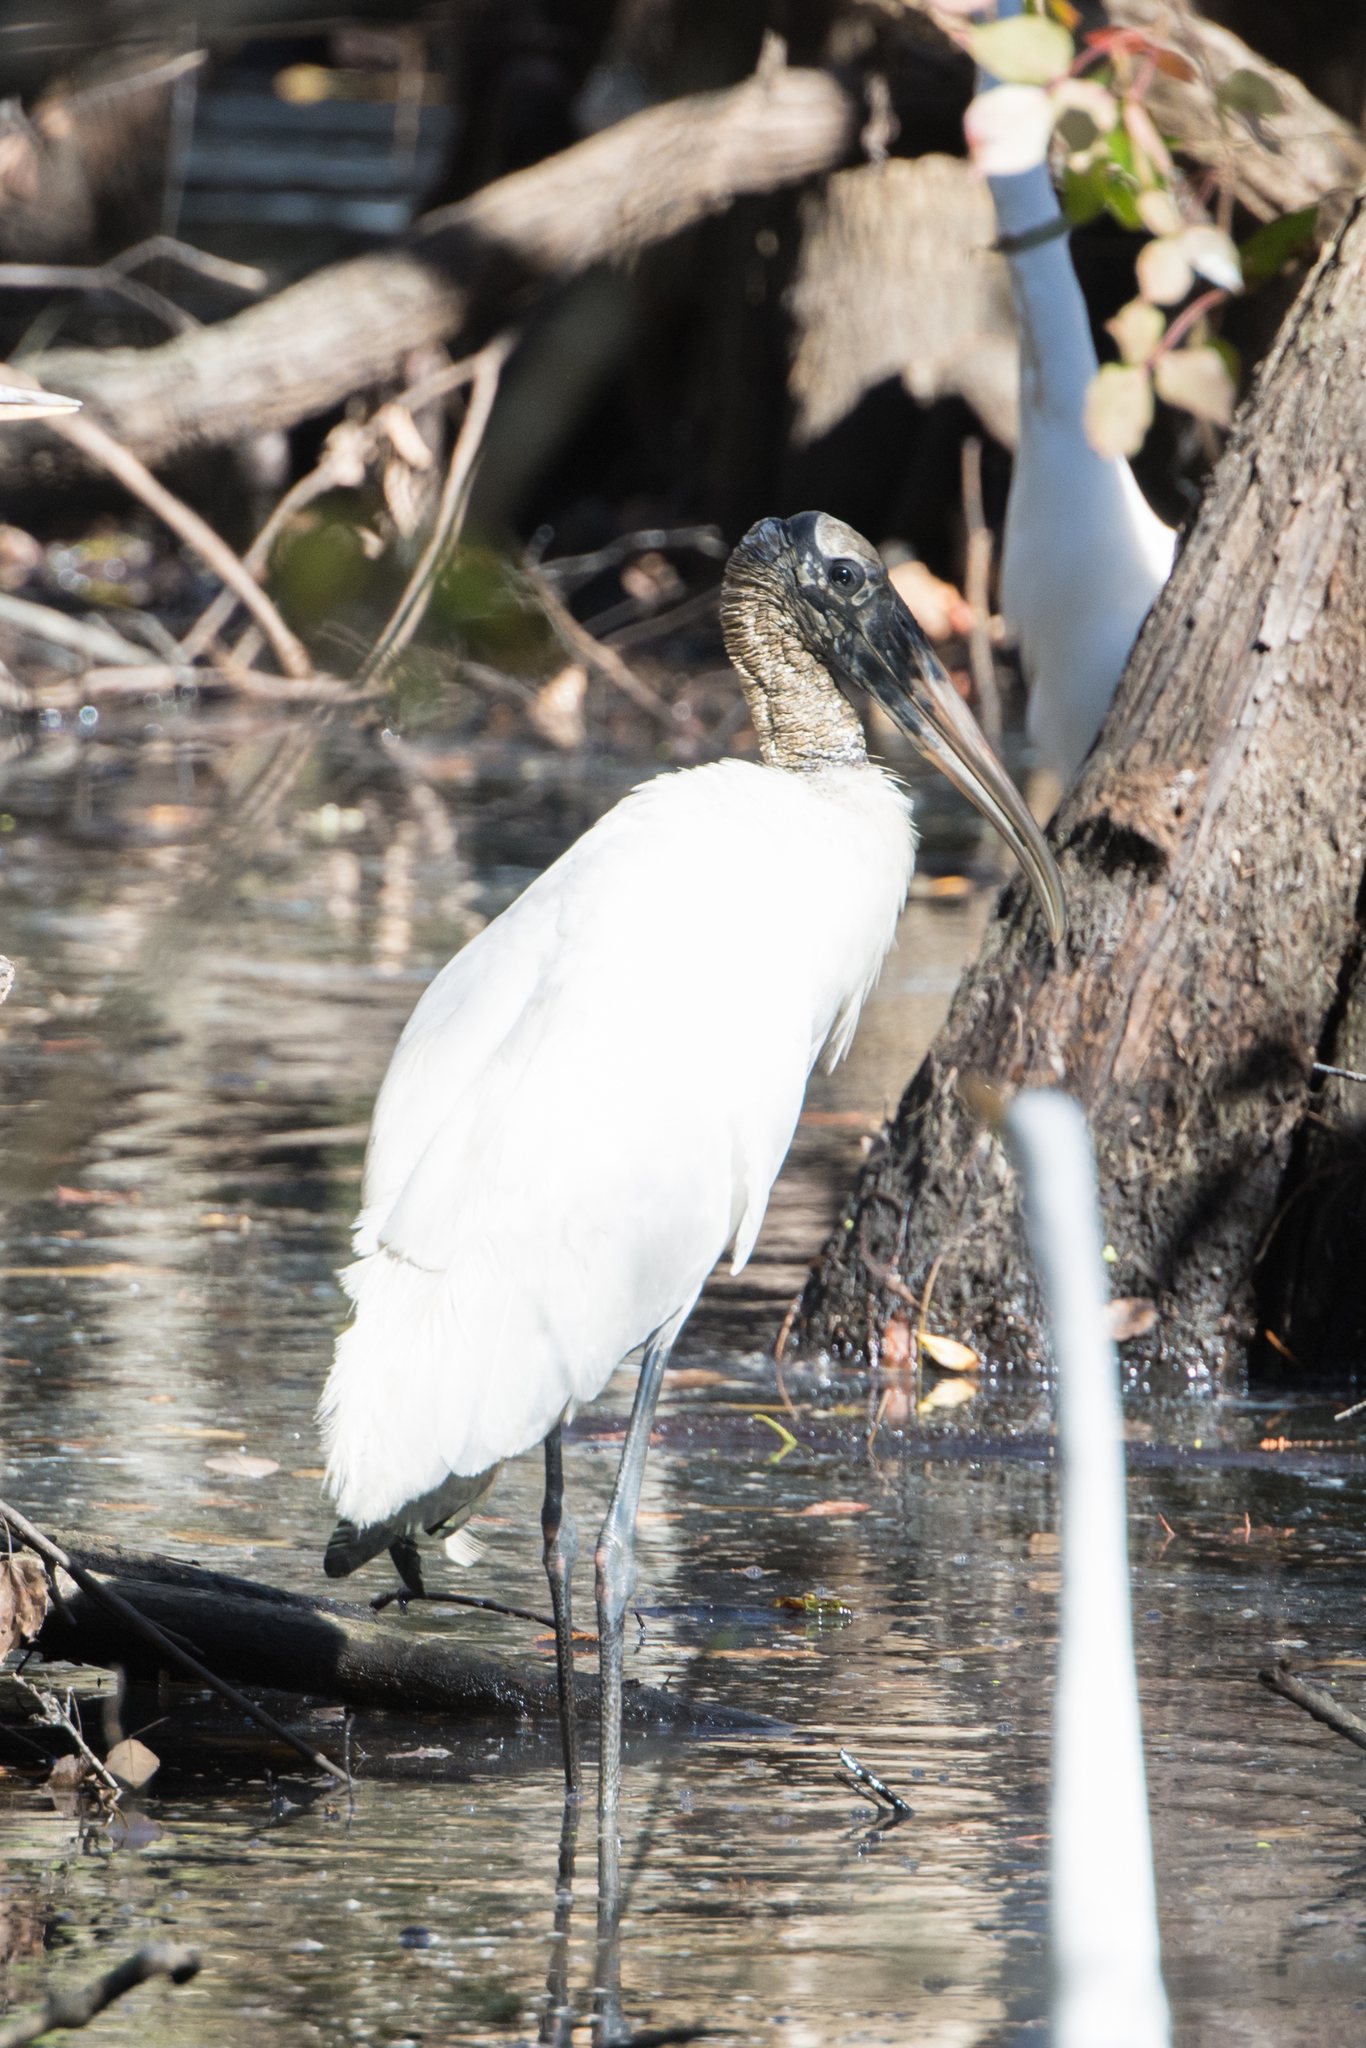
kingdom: Animalia
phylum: Chordata
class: Aves
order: Ciconiiformes
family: Ciconiidae
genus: Mycteria
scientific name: Mycteria americana
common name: Wood stork
